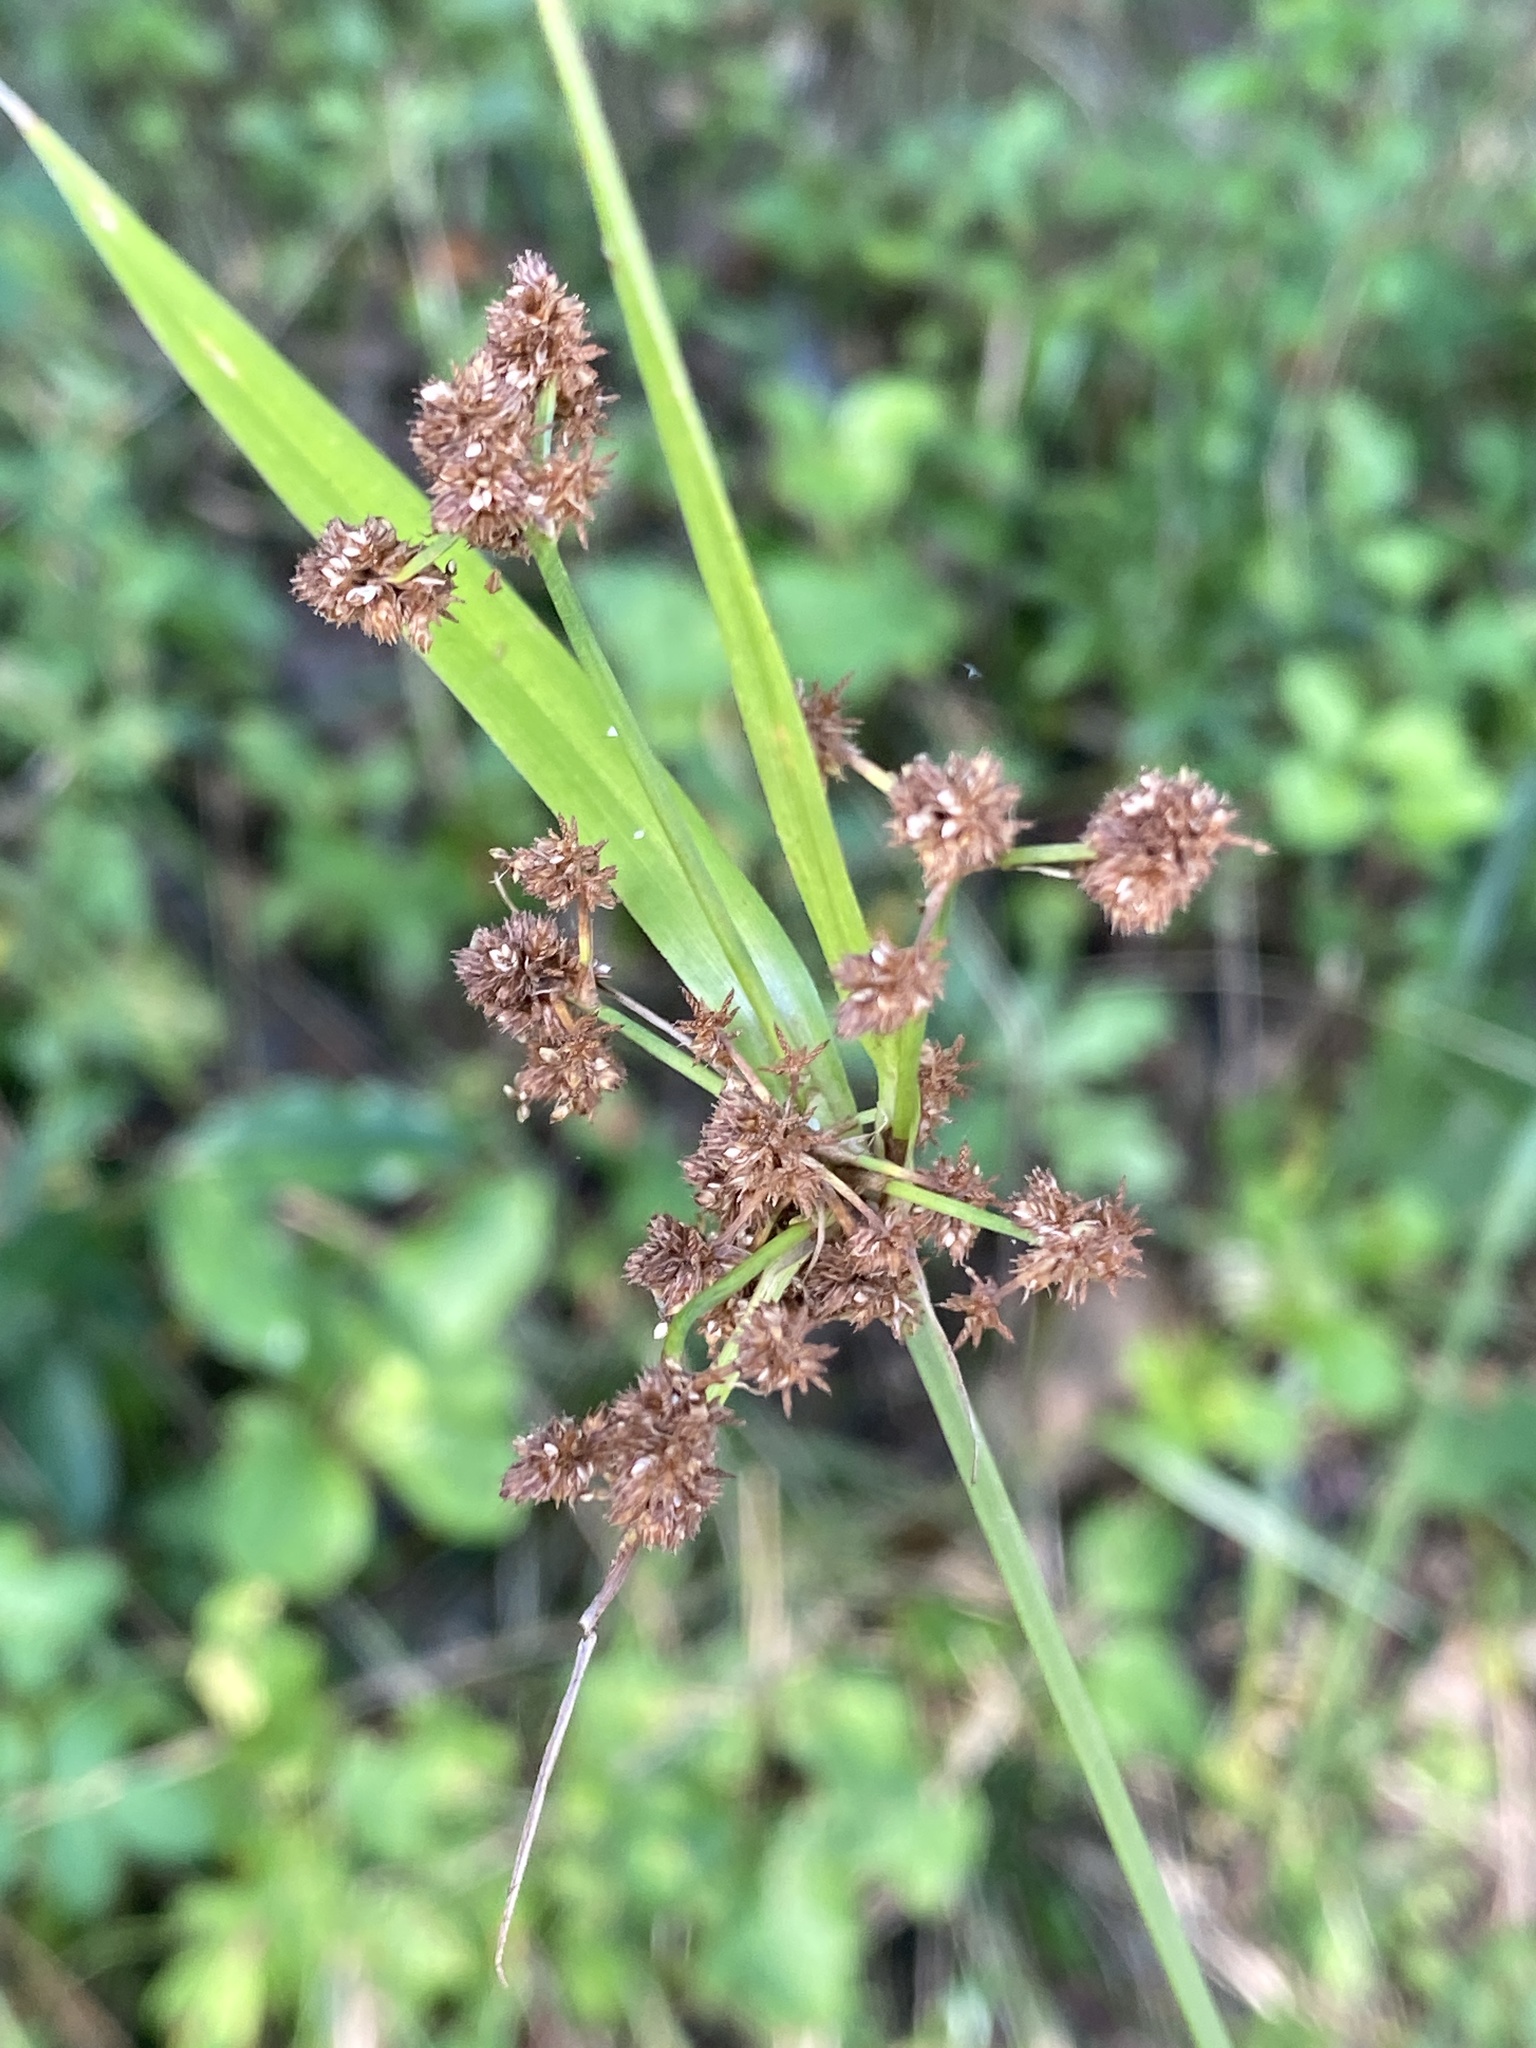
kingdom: Plantae
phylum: Tracheophyta
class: Liliopsida
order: Poales
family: Cyperaceae
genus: Scirpus
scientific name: Scirpus atrovirens
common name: Black bulrush
